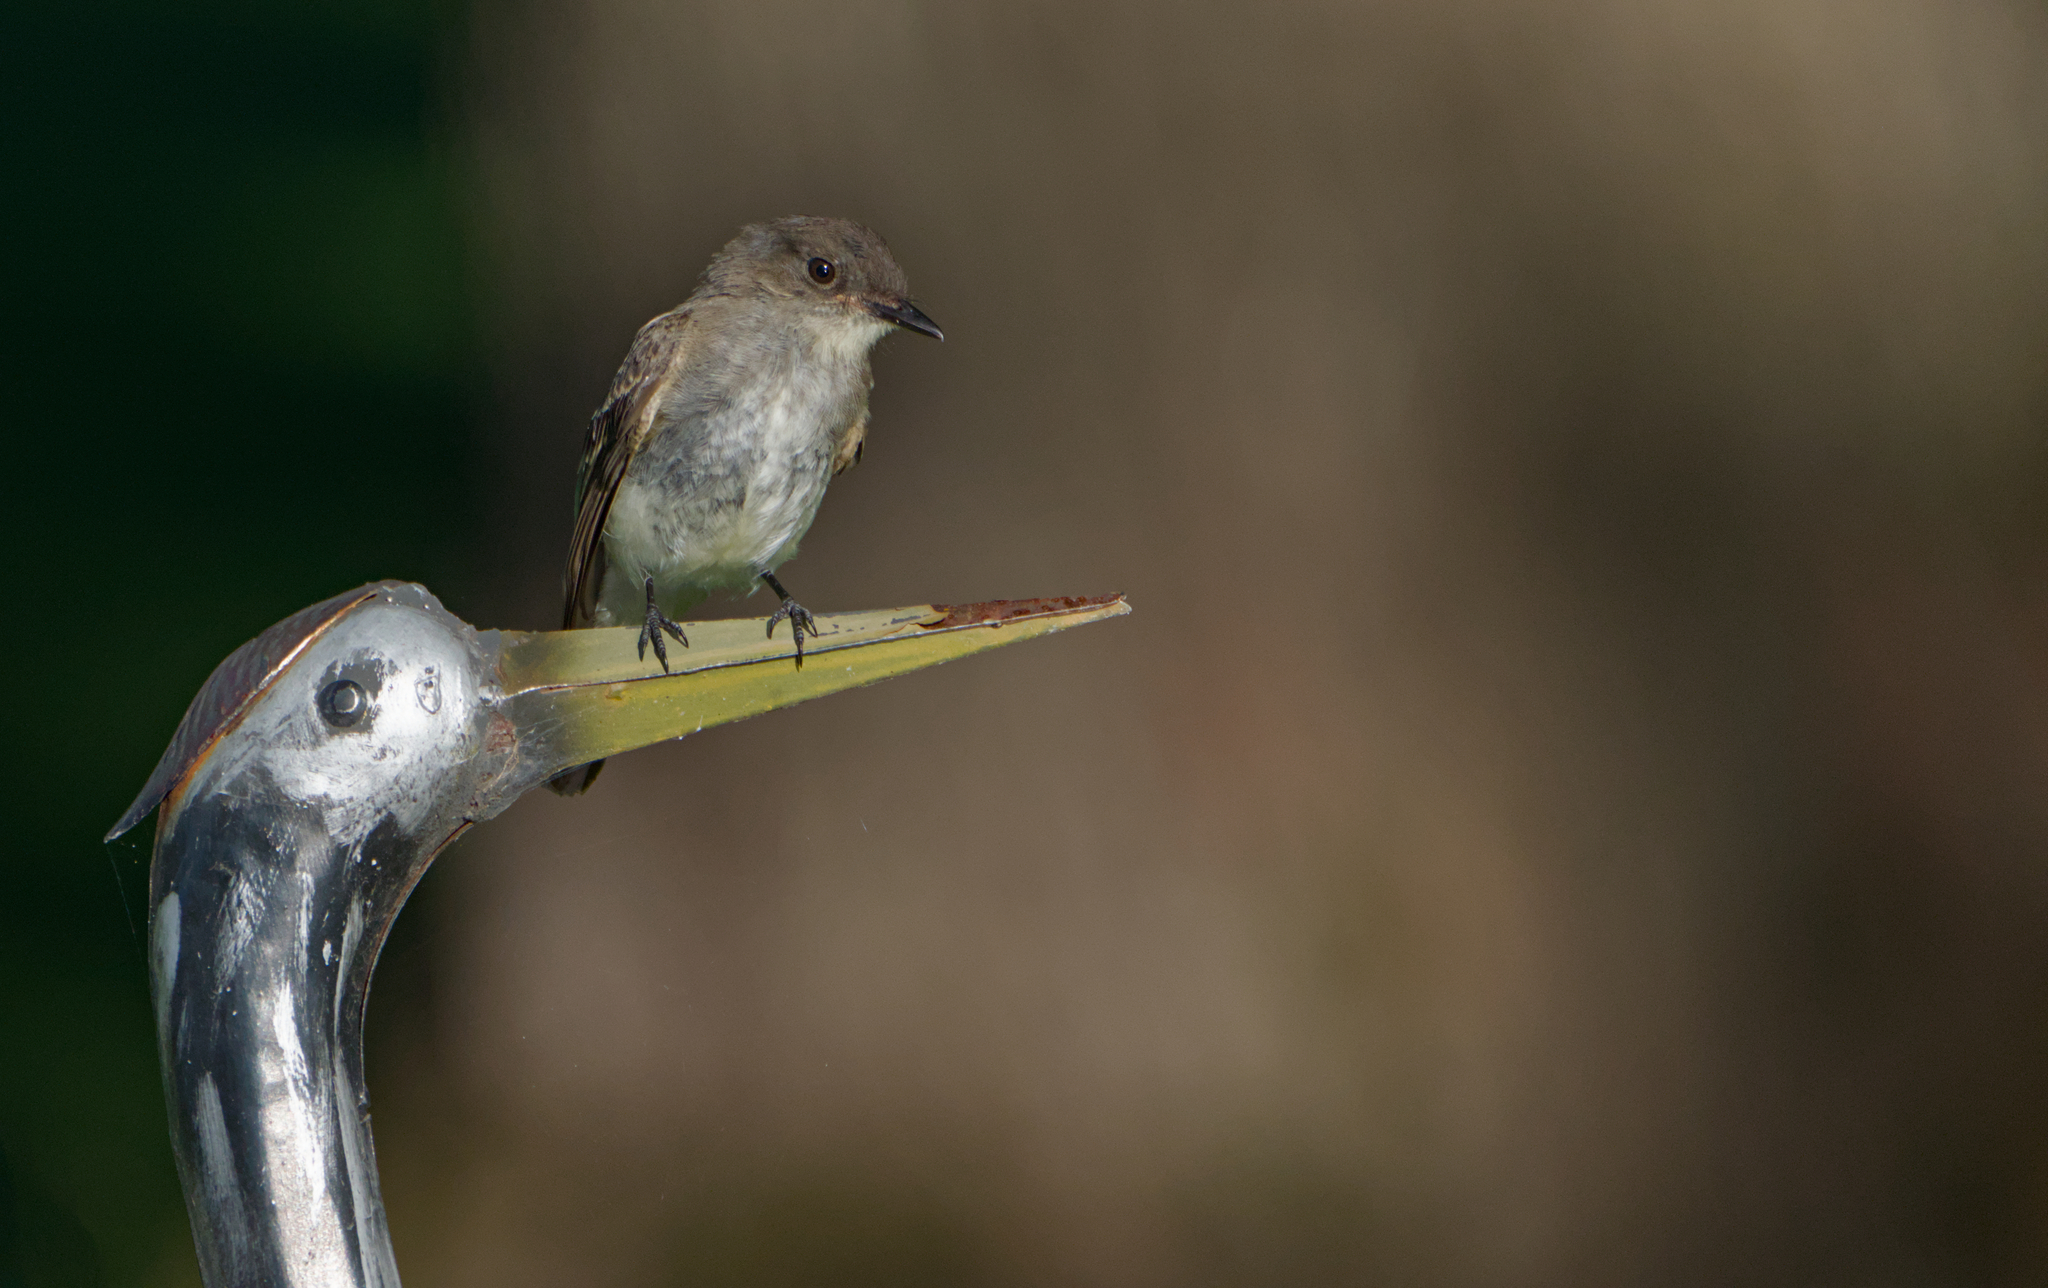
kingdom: Animalia
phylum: Chordata
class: Aves
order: Passeriformes
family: Tyrannidae
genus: Sayornis
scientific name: Sayornis phoebe
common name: Eastern phoebe
